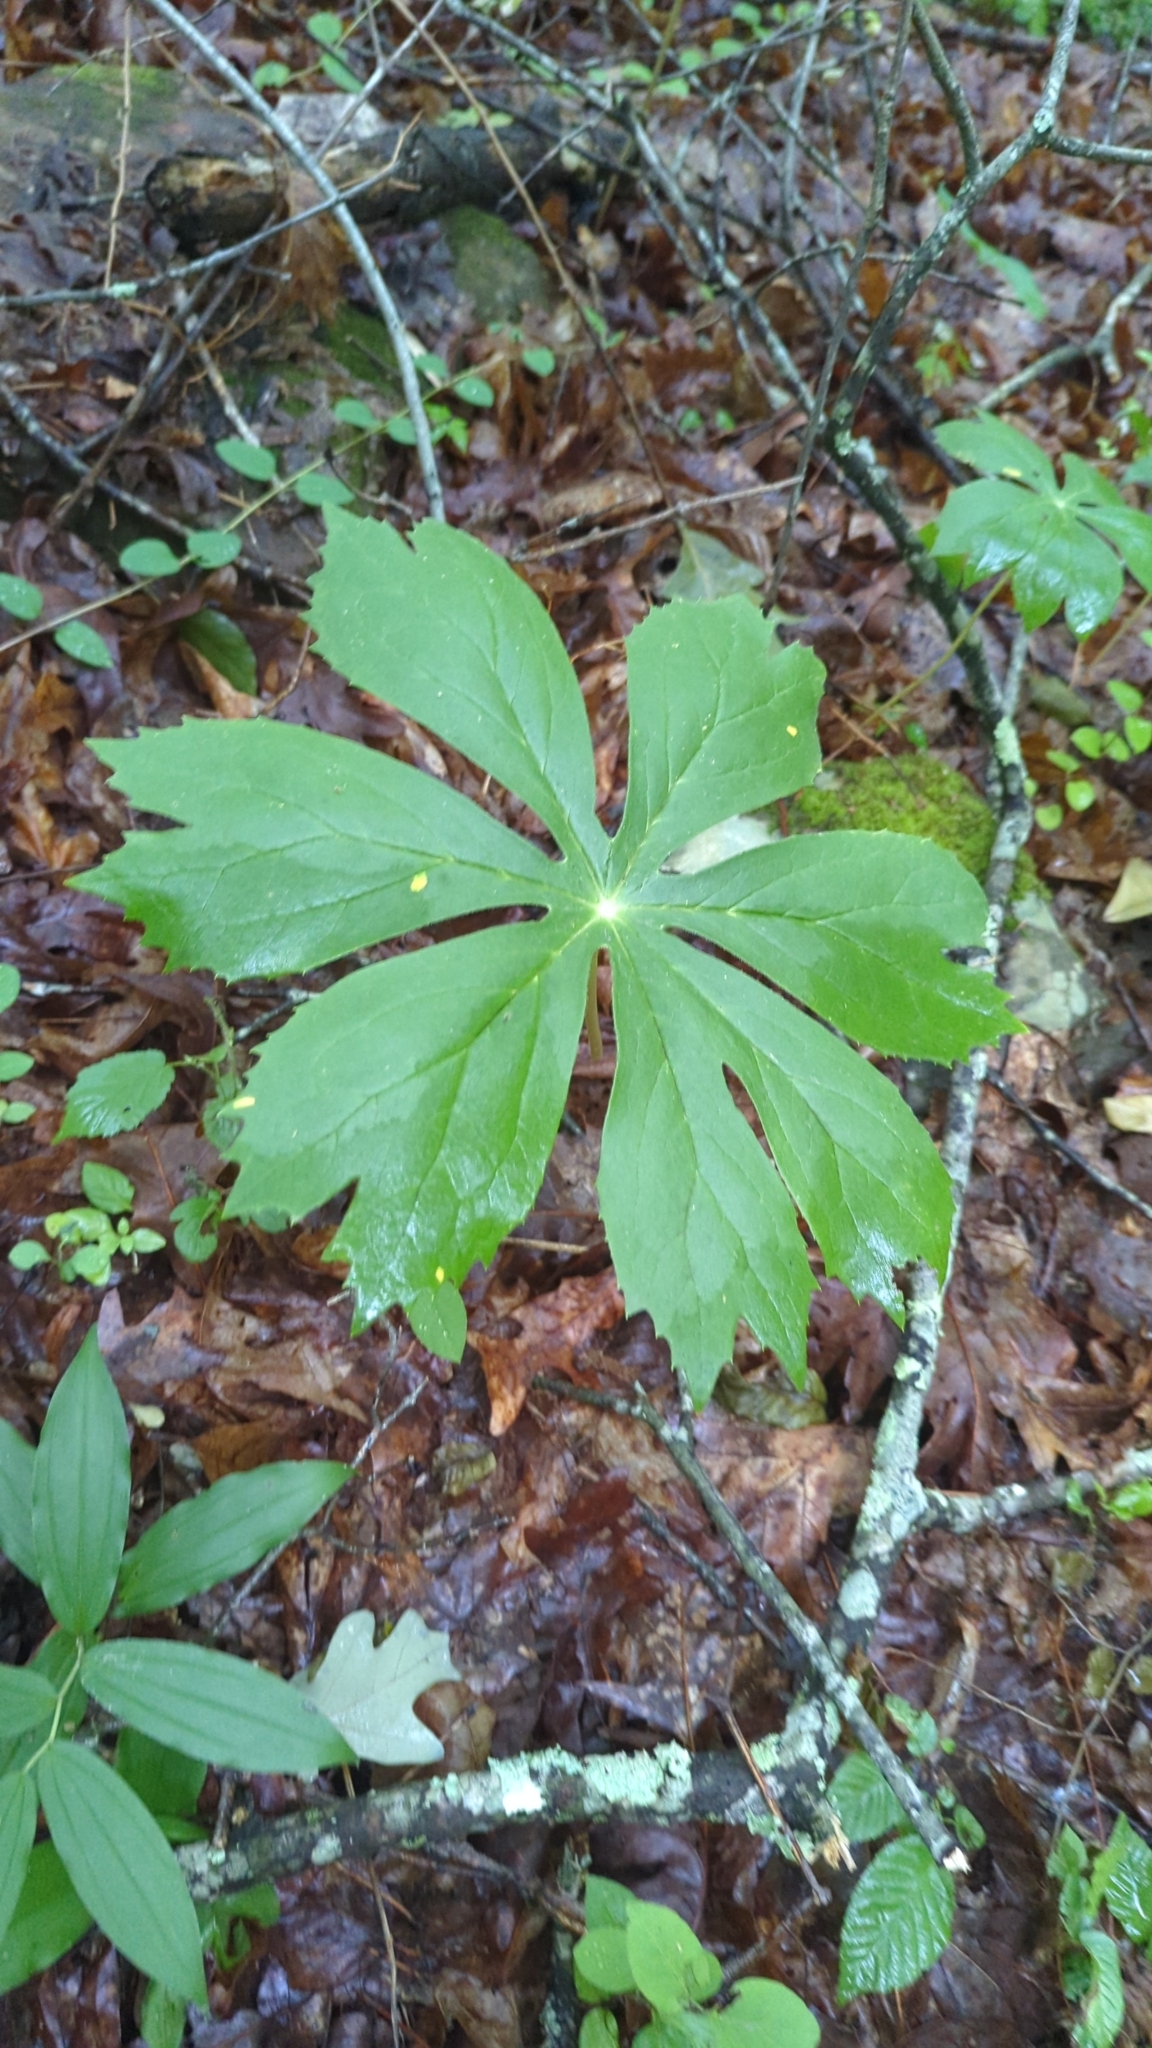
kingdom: Plantae
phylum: Tracheophyta
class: Magnoliopsida
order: Ranunculales
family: Berberidaceae
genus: Podophyllum
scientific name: Podophyllum peltatum
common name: Wild mandrake
